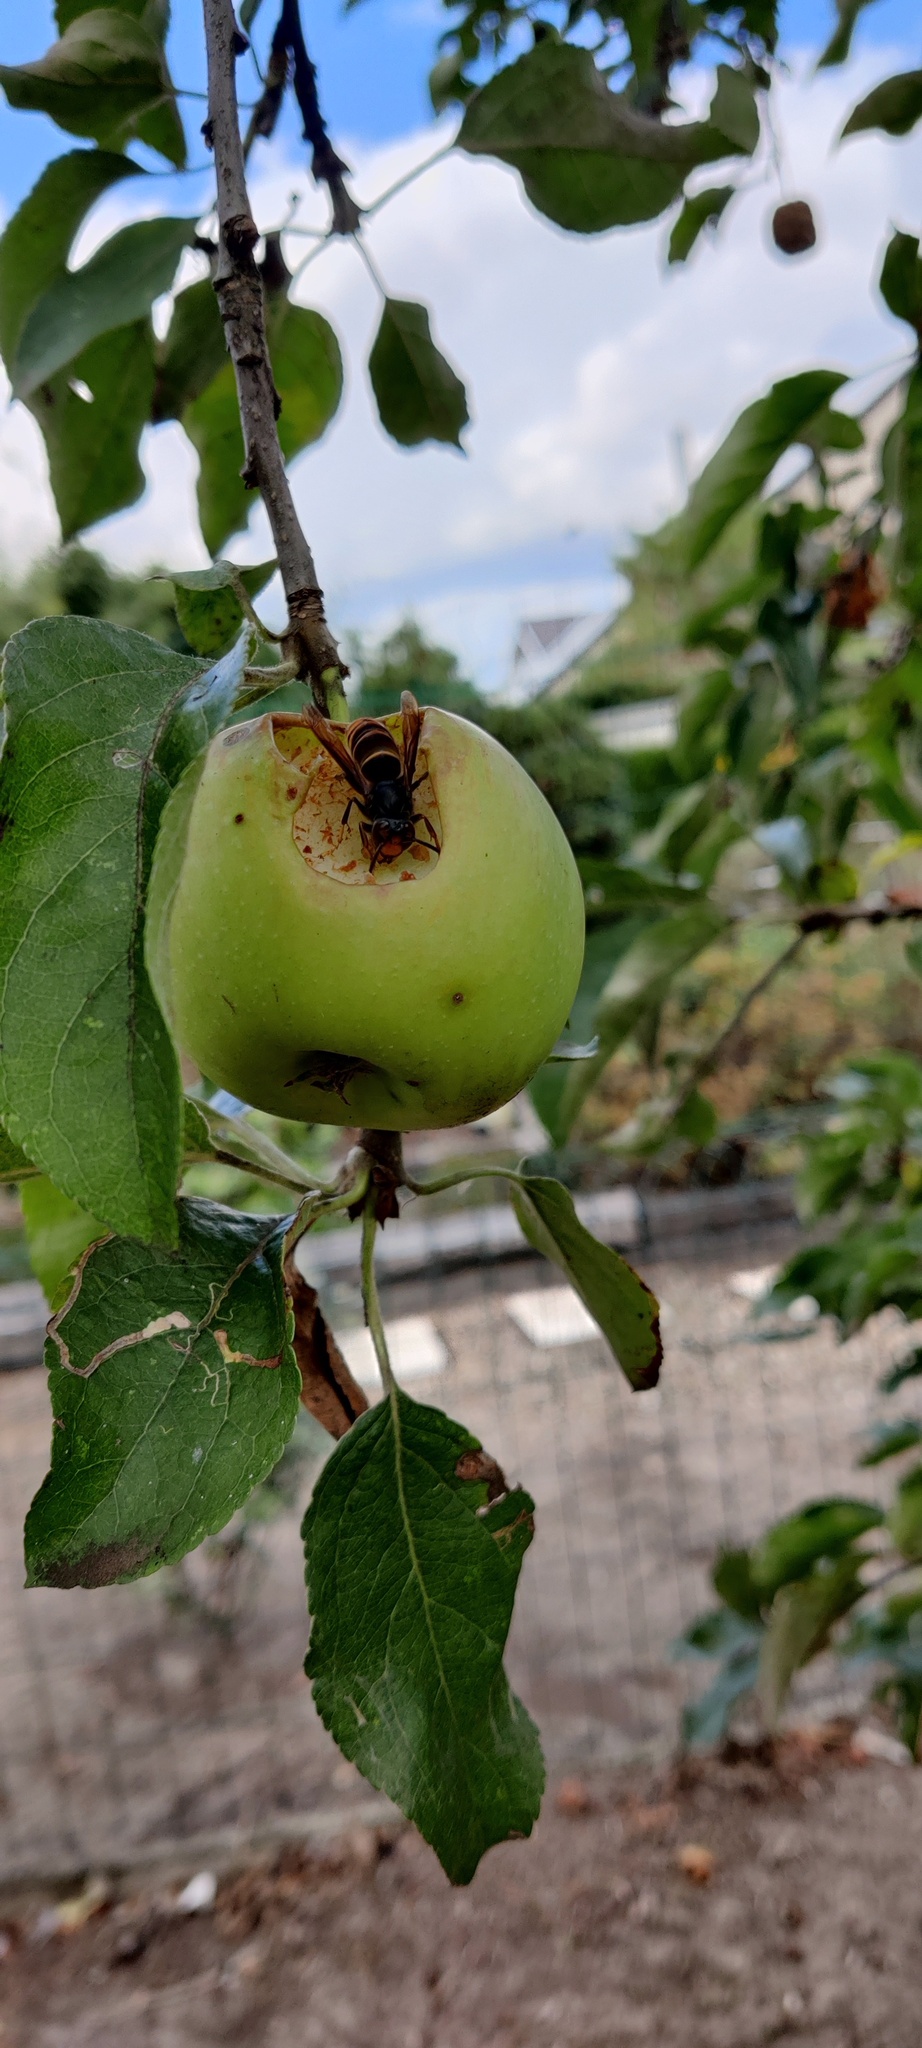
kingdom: Animalia
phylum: Arthropoda
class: Insecta
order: Hymenoptera
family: Vespidae
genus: Vespa
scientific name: Vespa velutina
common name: Asian hornet
